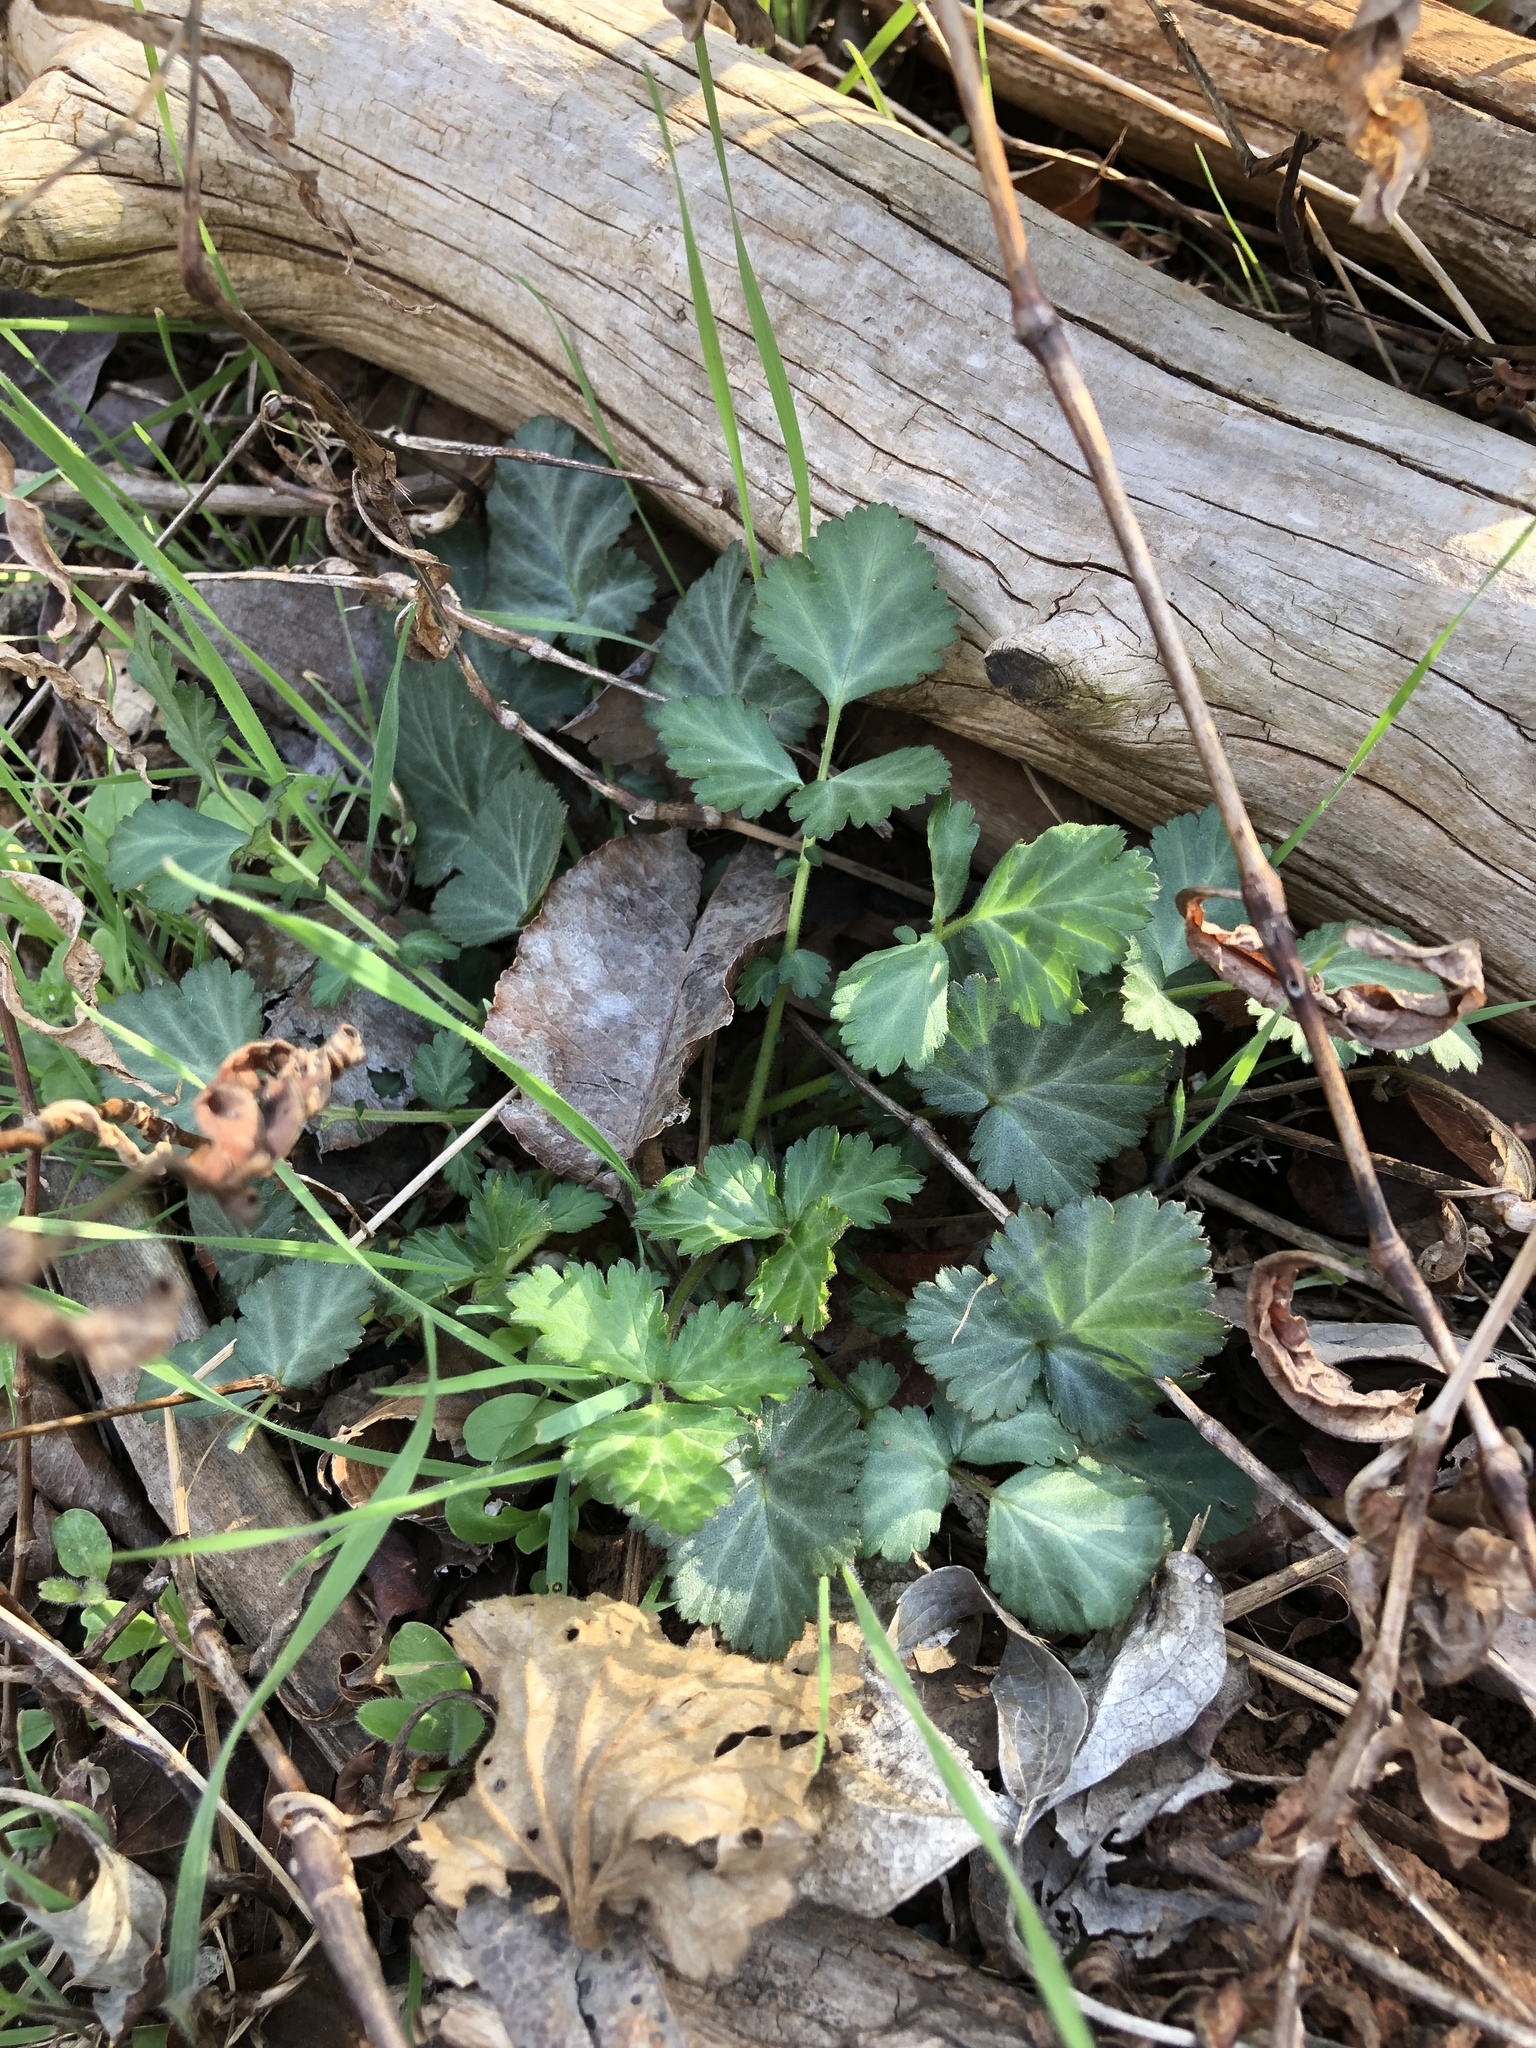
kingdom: Plantae
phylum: Tracheophyta
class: Magnoliopsida
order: Rosales
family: Rosaceae
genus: Geum
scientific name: Geum canadense
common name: White avens
